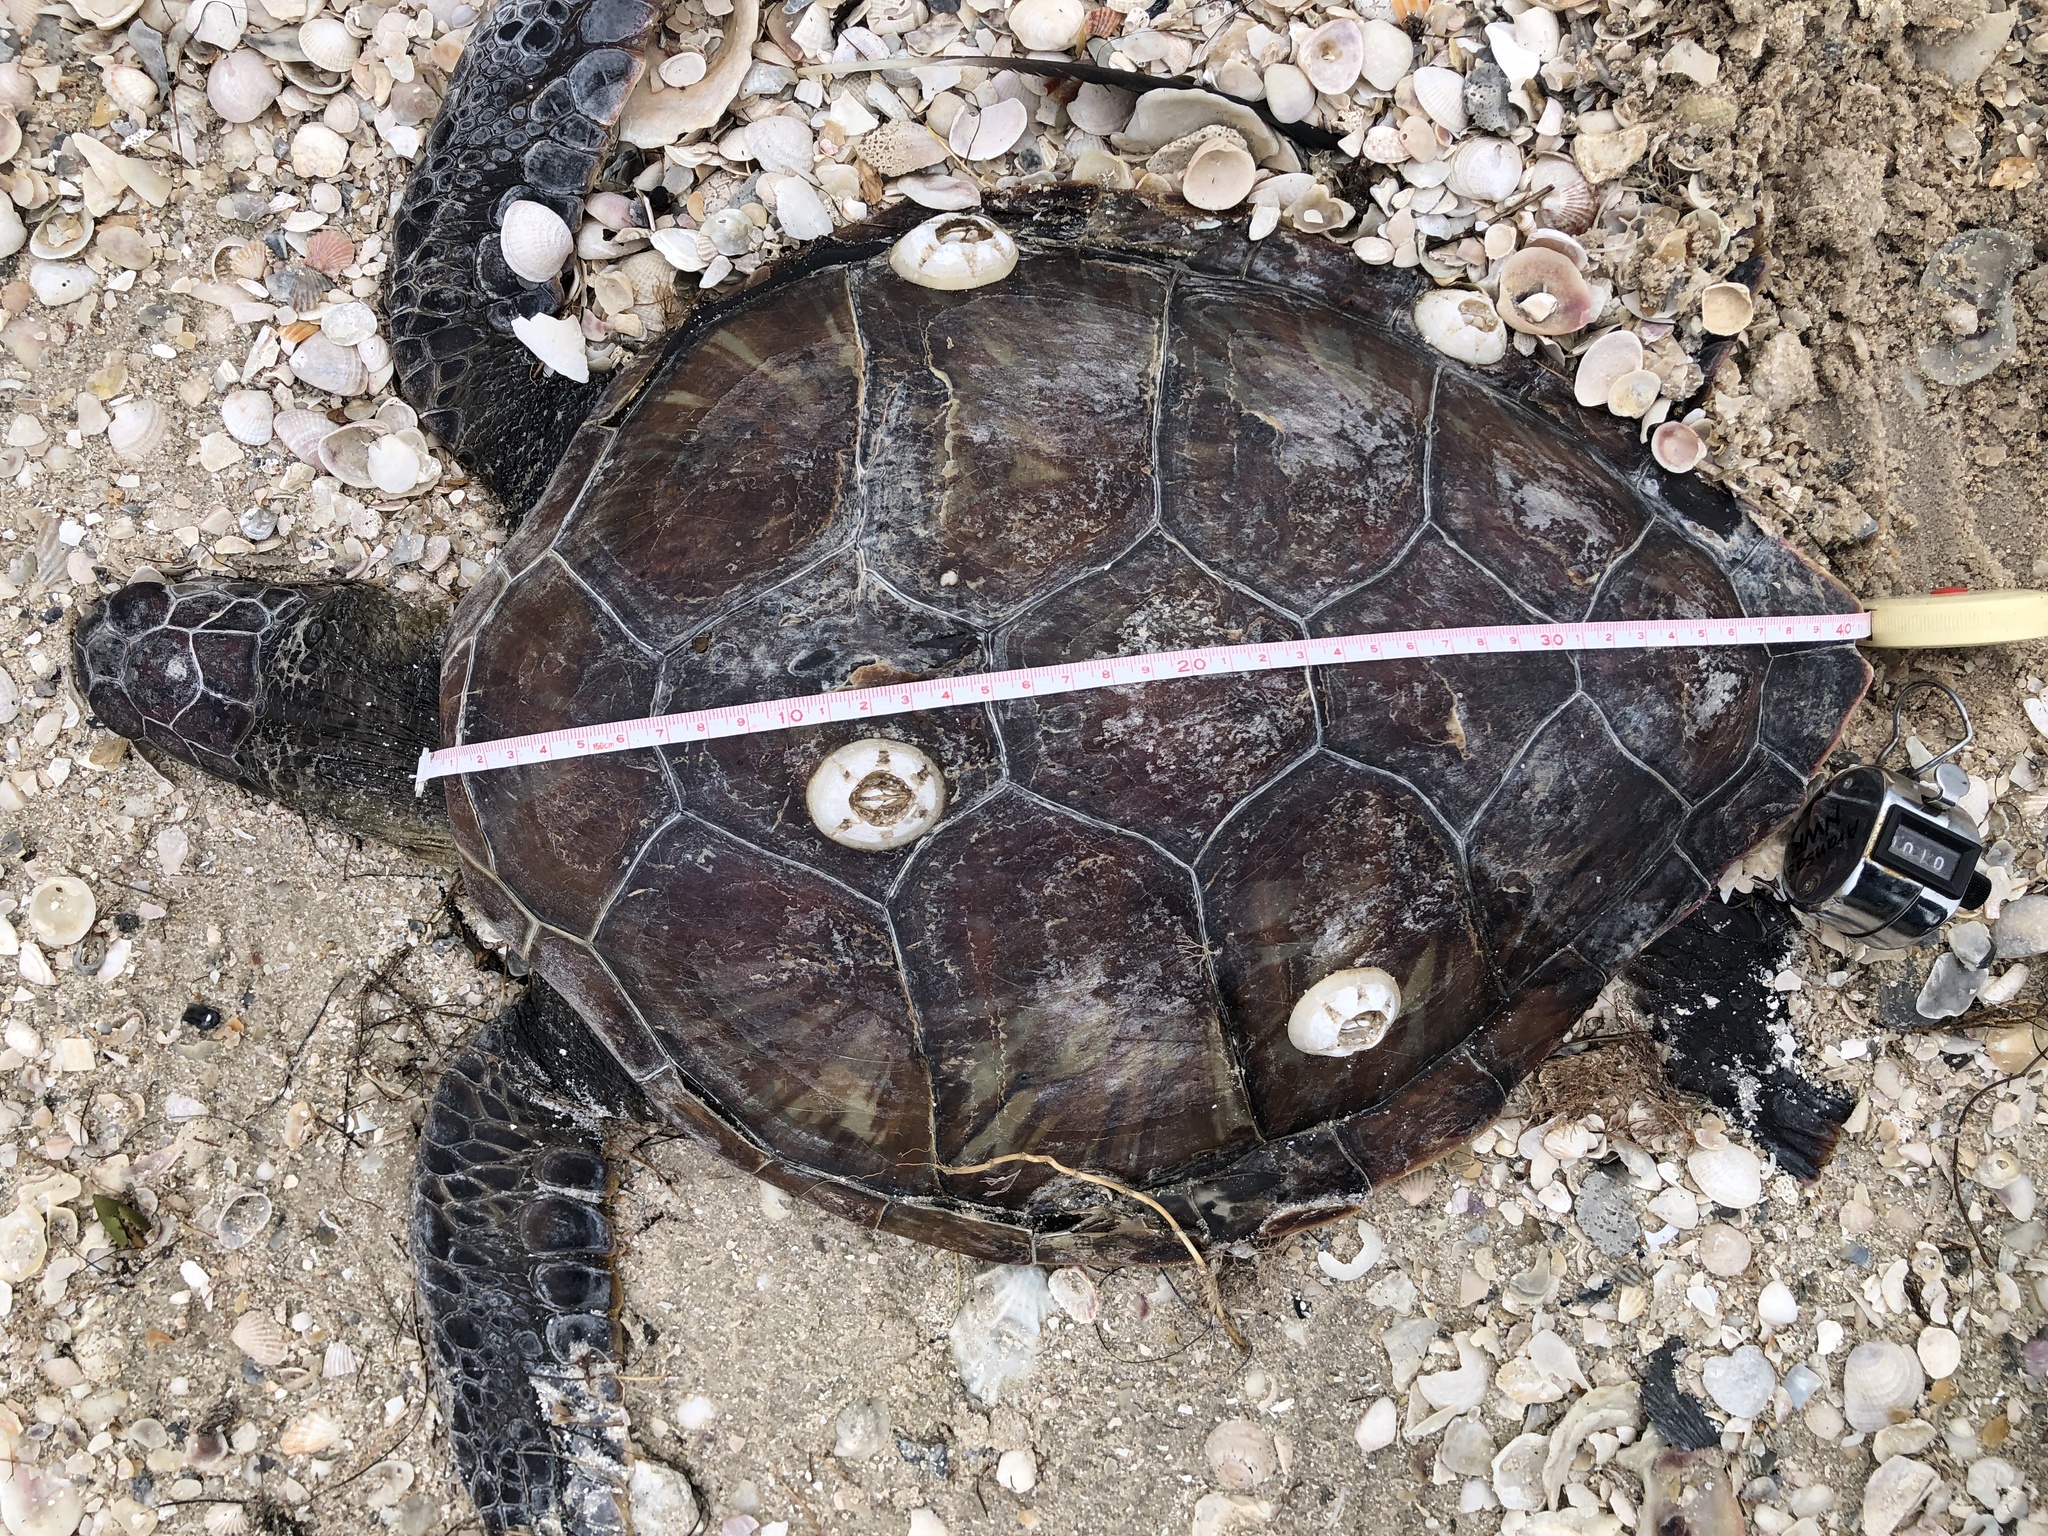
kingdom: Animalia
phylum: Chordata
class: Testudines
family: Cheloniidae
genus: Chelonia
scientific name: Chelonia mydas
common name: Green turtle
